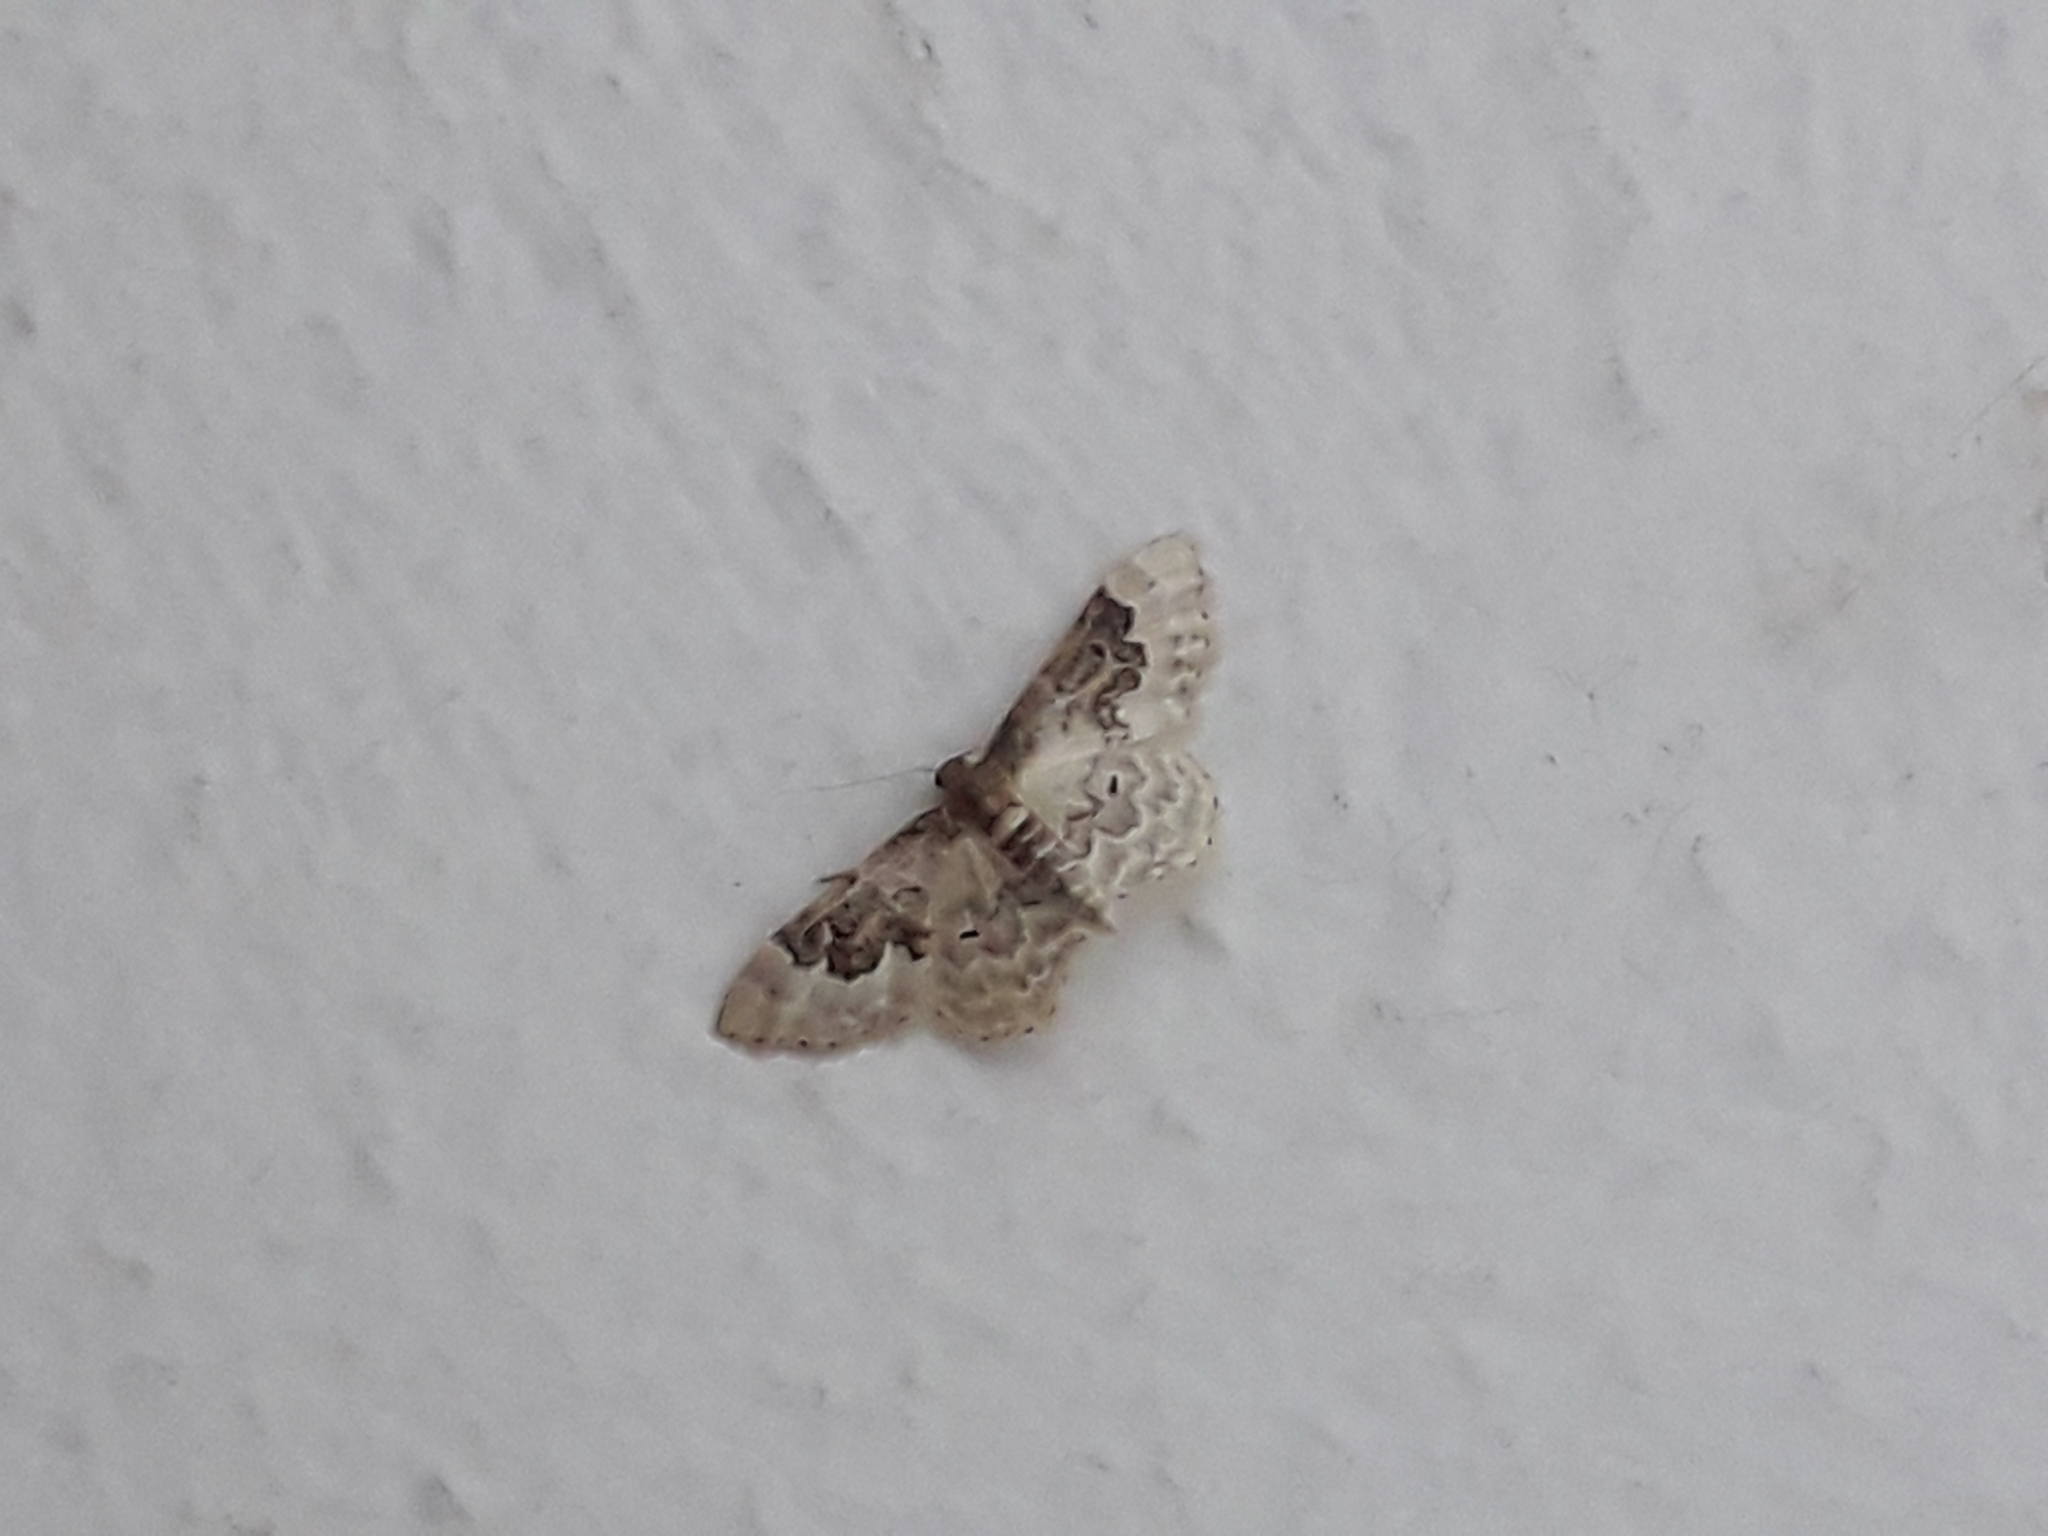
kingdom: Animalia
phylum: Arthropoda
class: Insecta
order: Lepidoptera
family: Geometridae
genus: Idaea
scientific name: Idaea rusticata
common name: Least carpet
